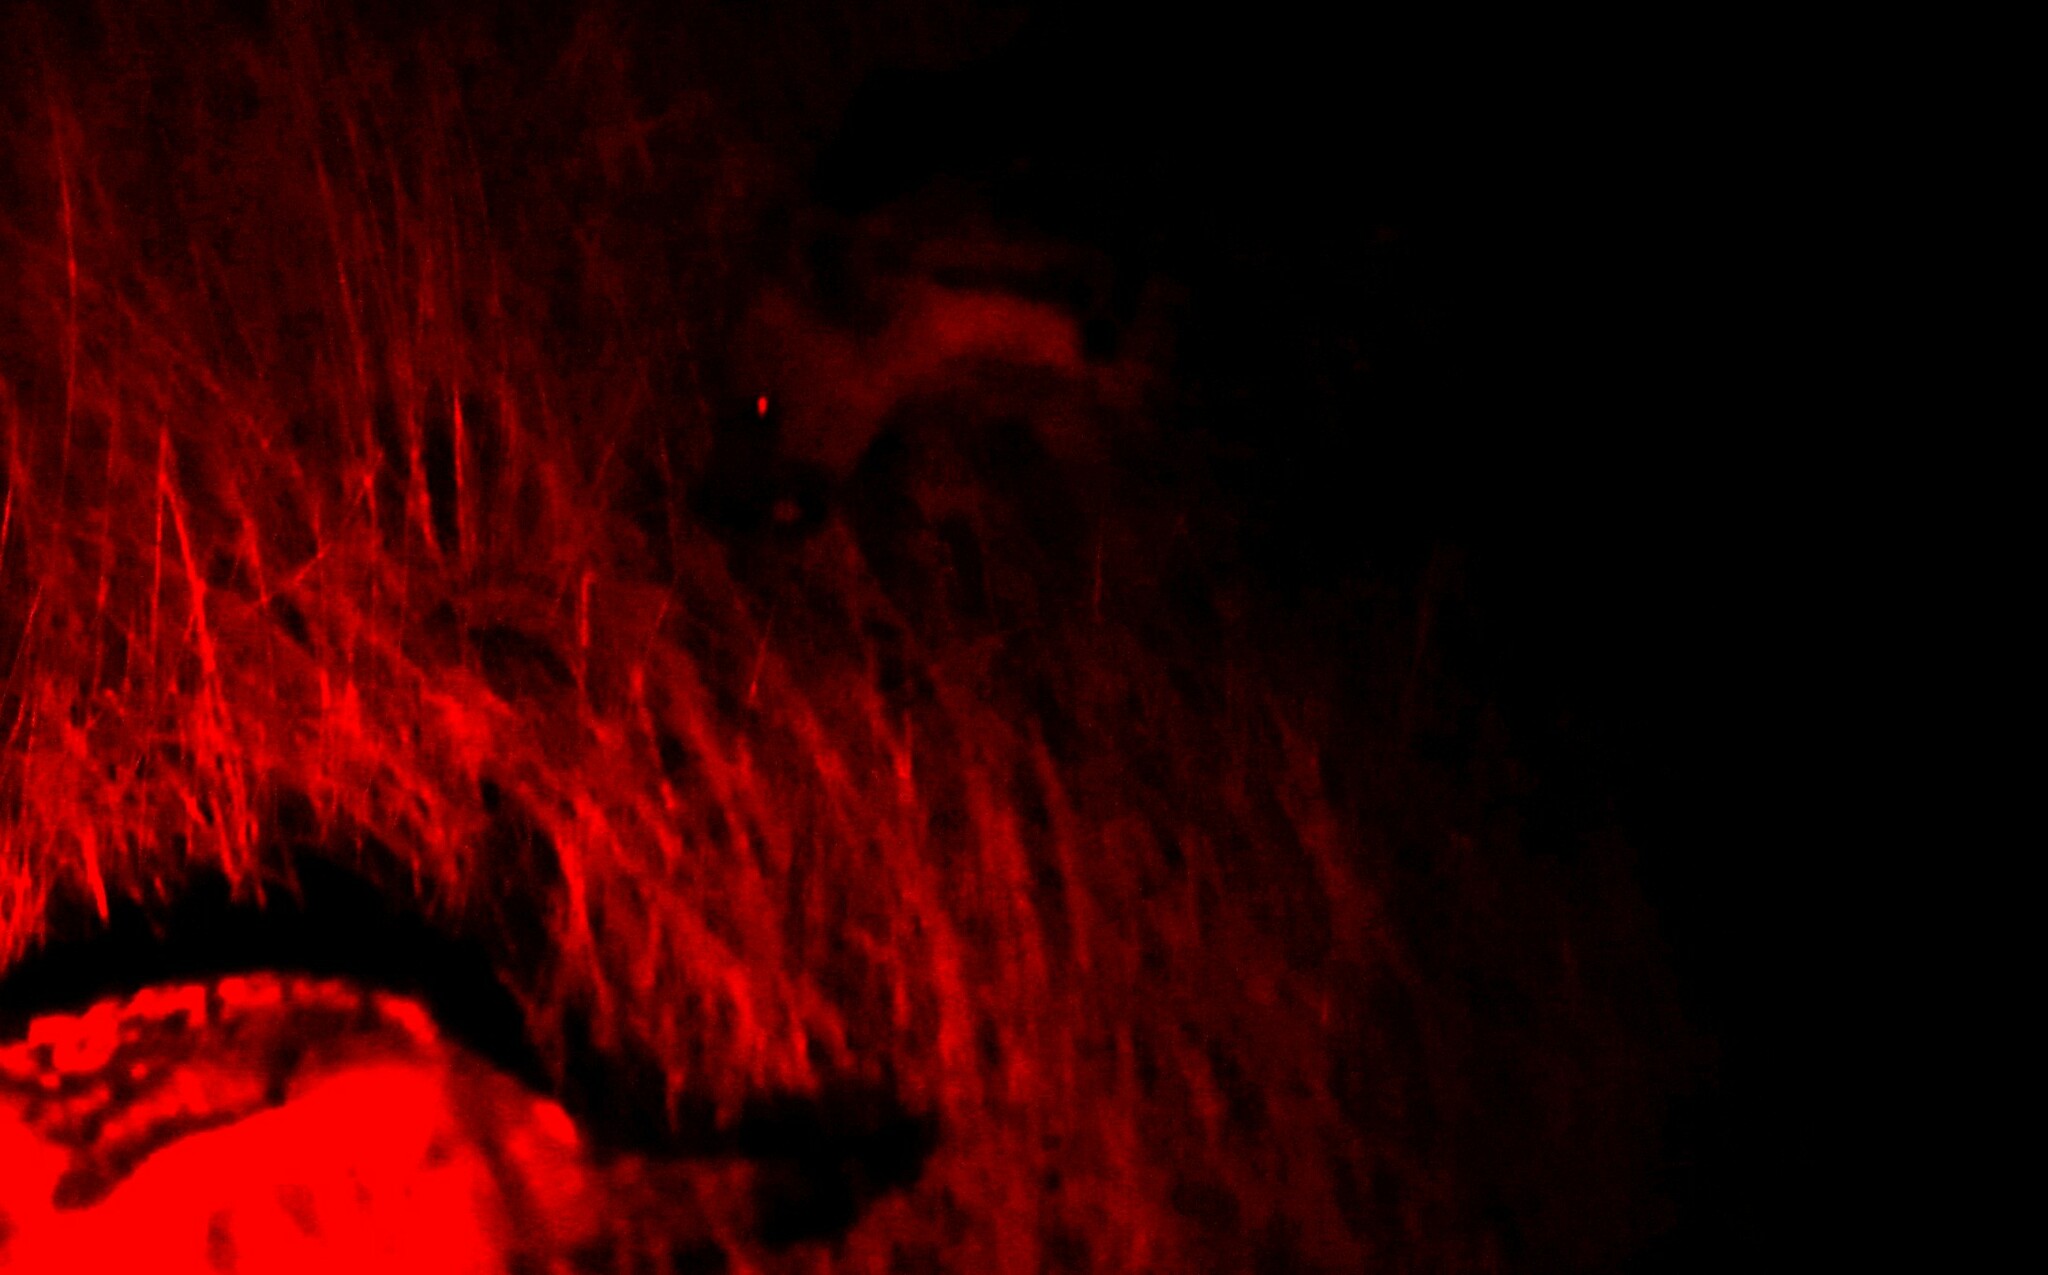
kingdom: Animalia
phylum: Chordata
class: Mammalia
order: Carnivora
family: Hyaenidae
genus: Crocuta
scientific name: Crocuta crocuta
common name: Spotted hyaena
